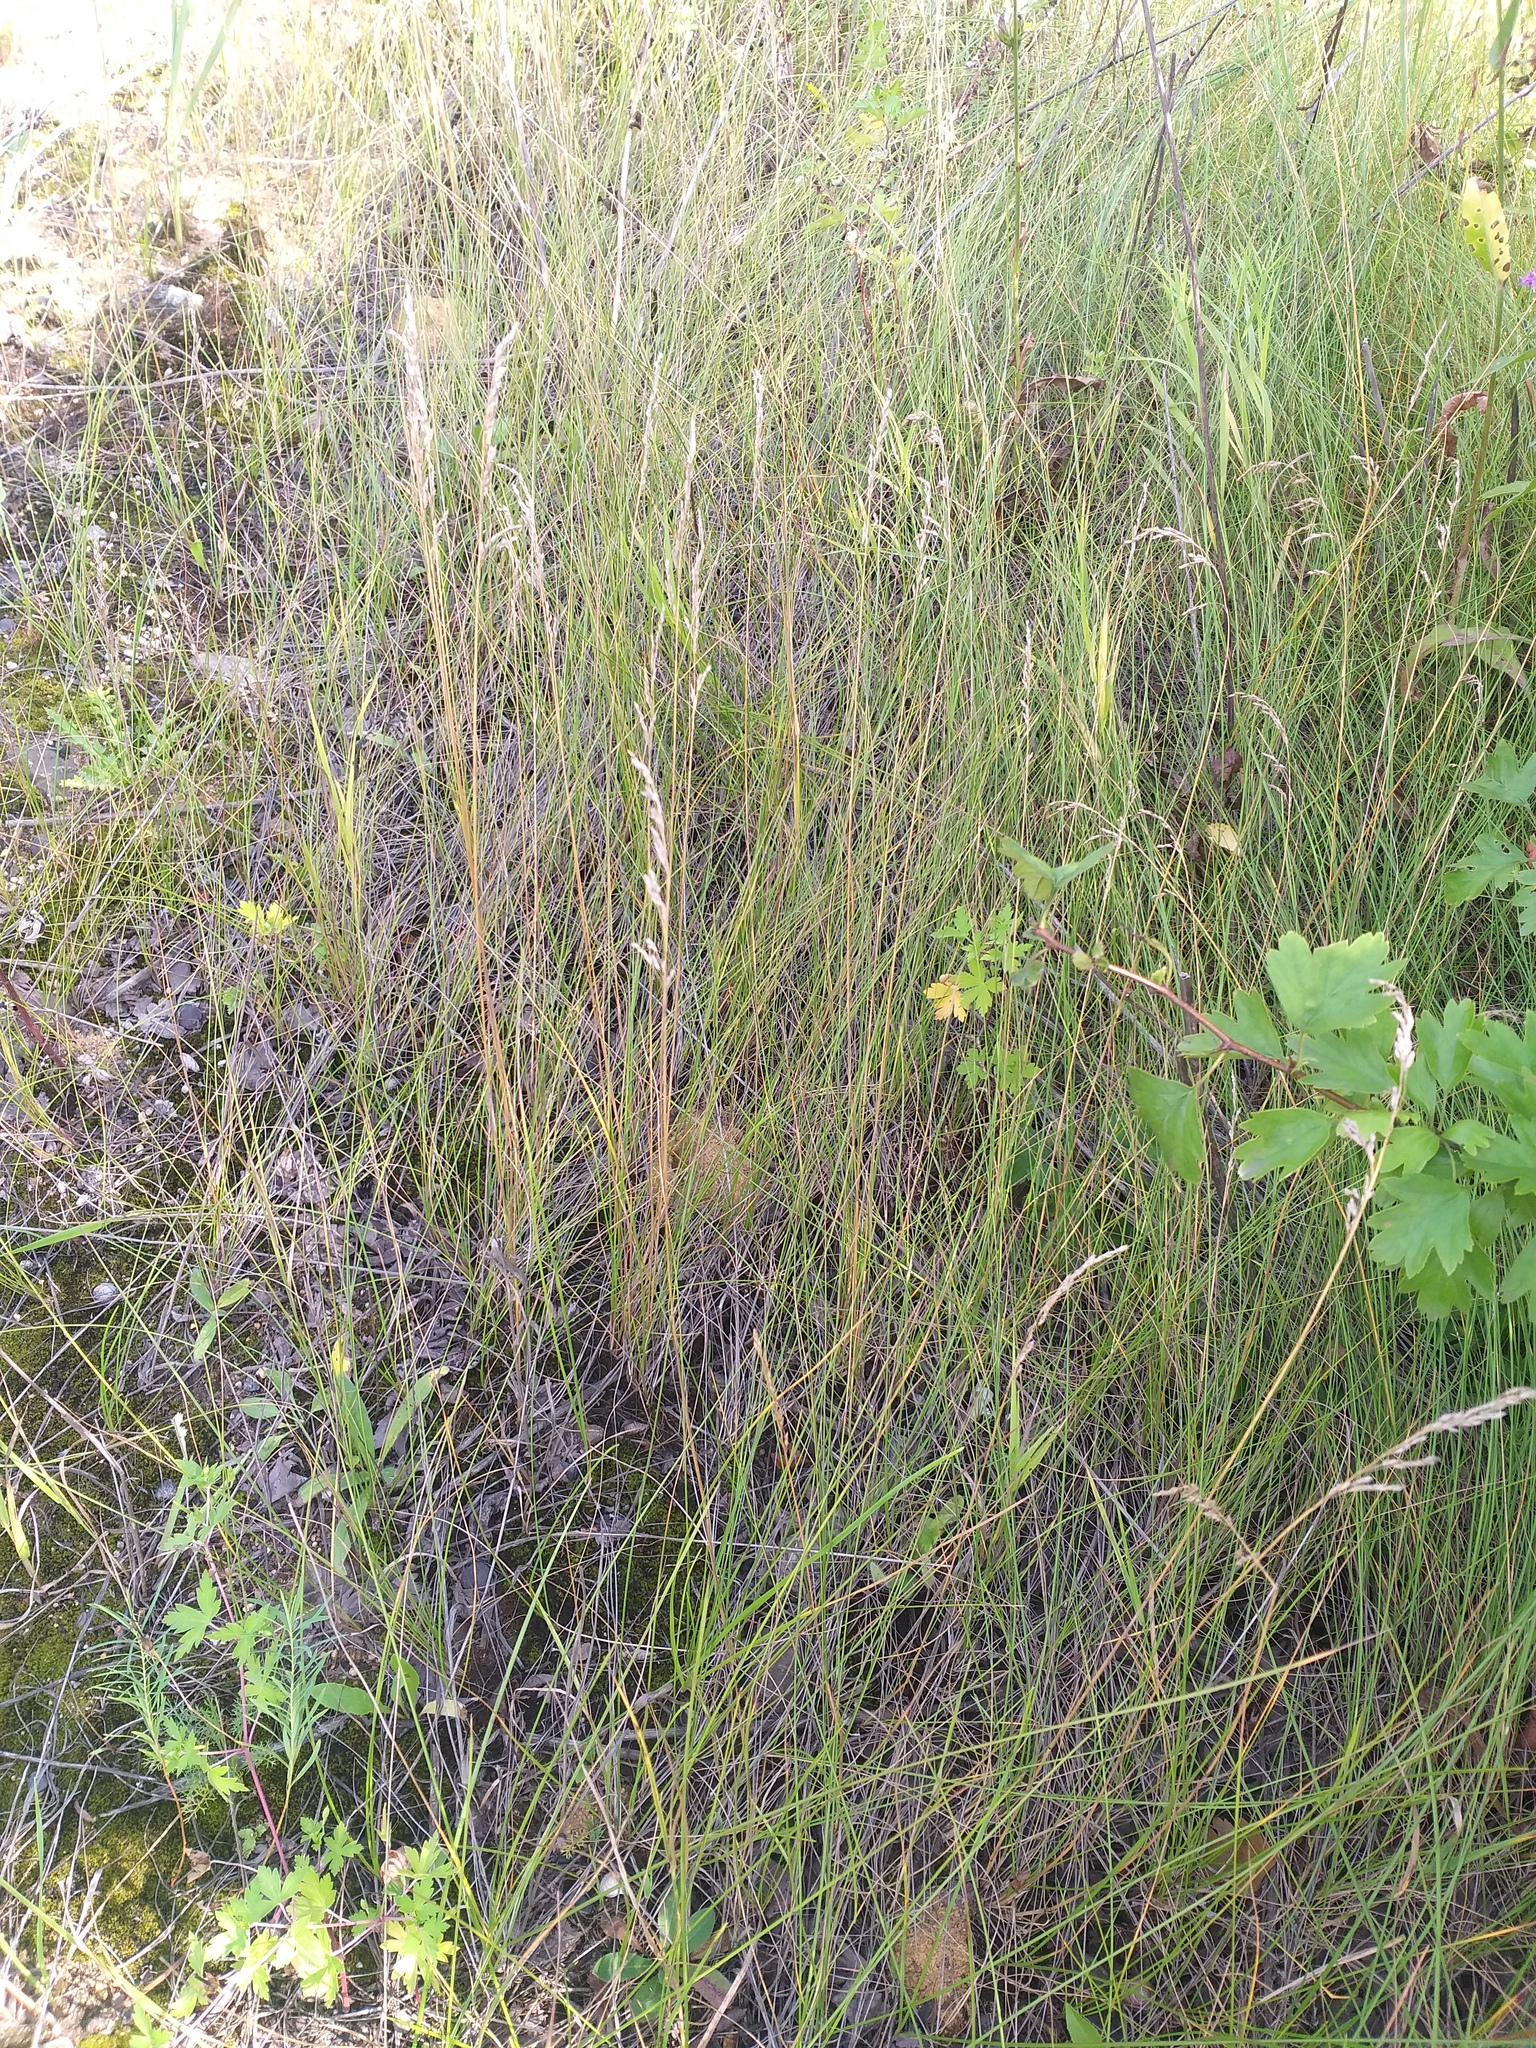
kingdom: Plantae
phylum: Tracheophyta
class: Liliopsida
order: Poales
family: Poaceae
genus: Poa
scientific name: Poa angustifolia
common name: Narrow-leaved meadow-grass
